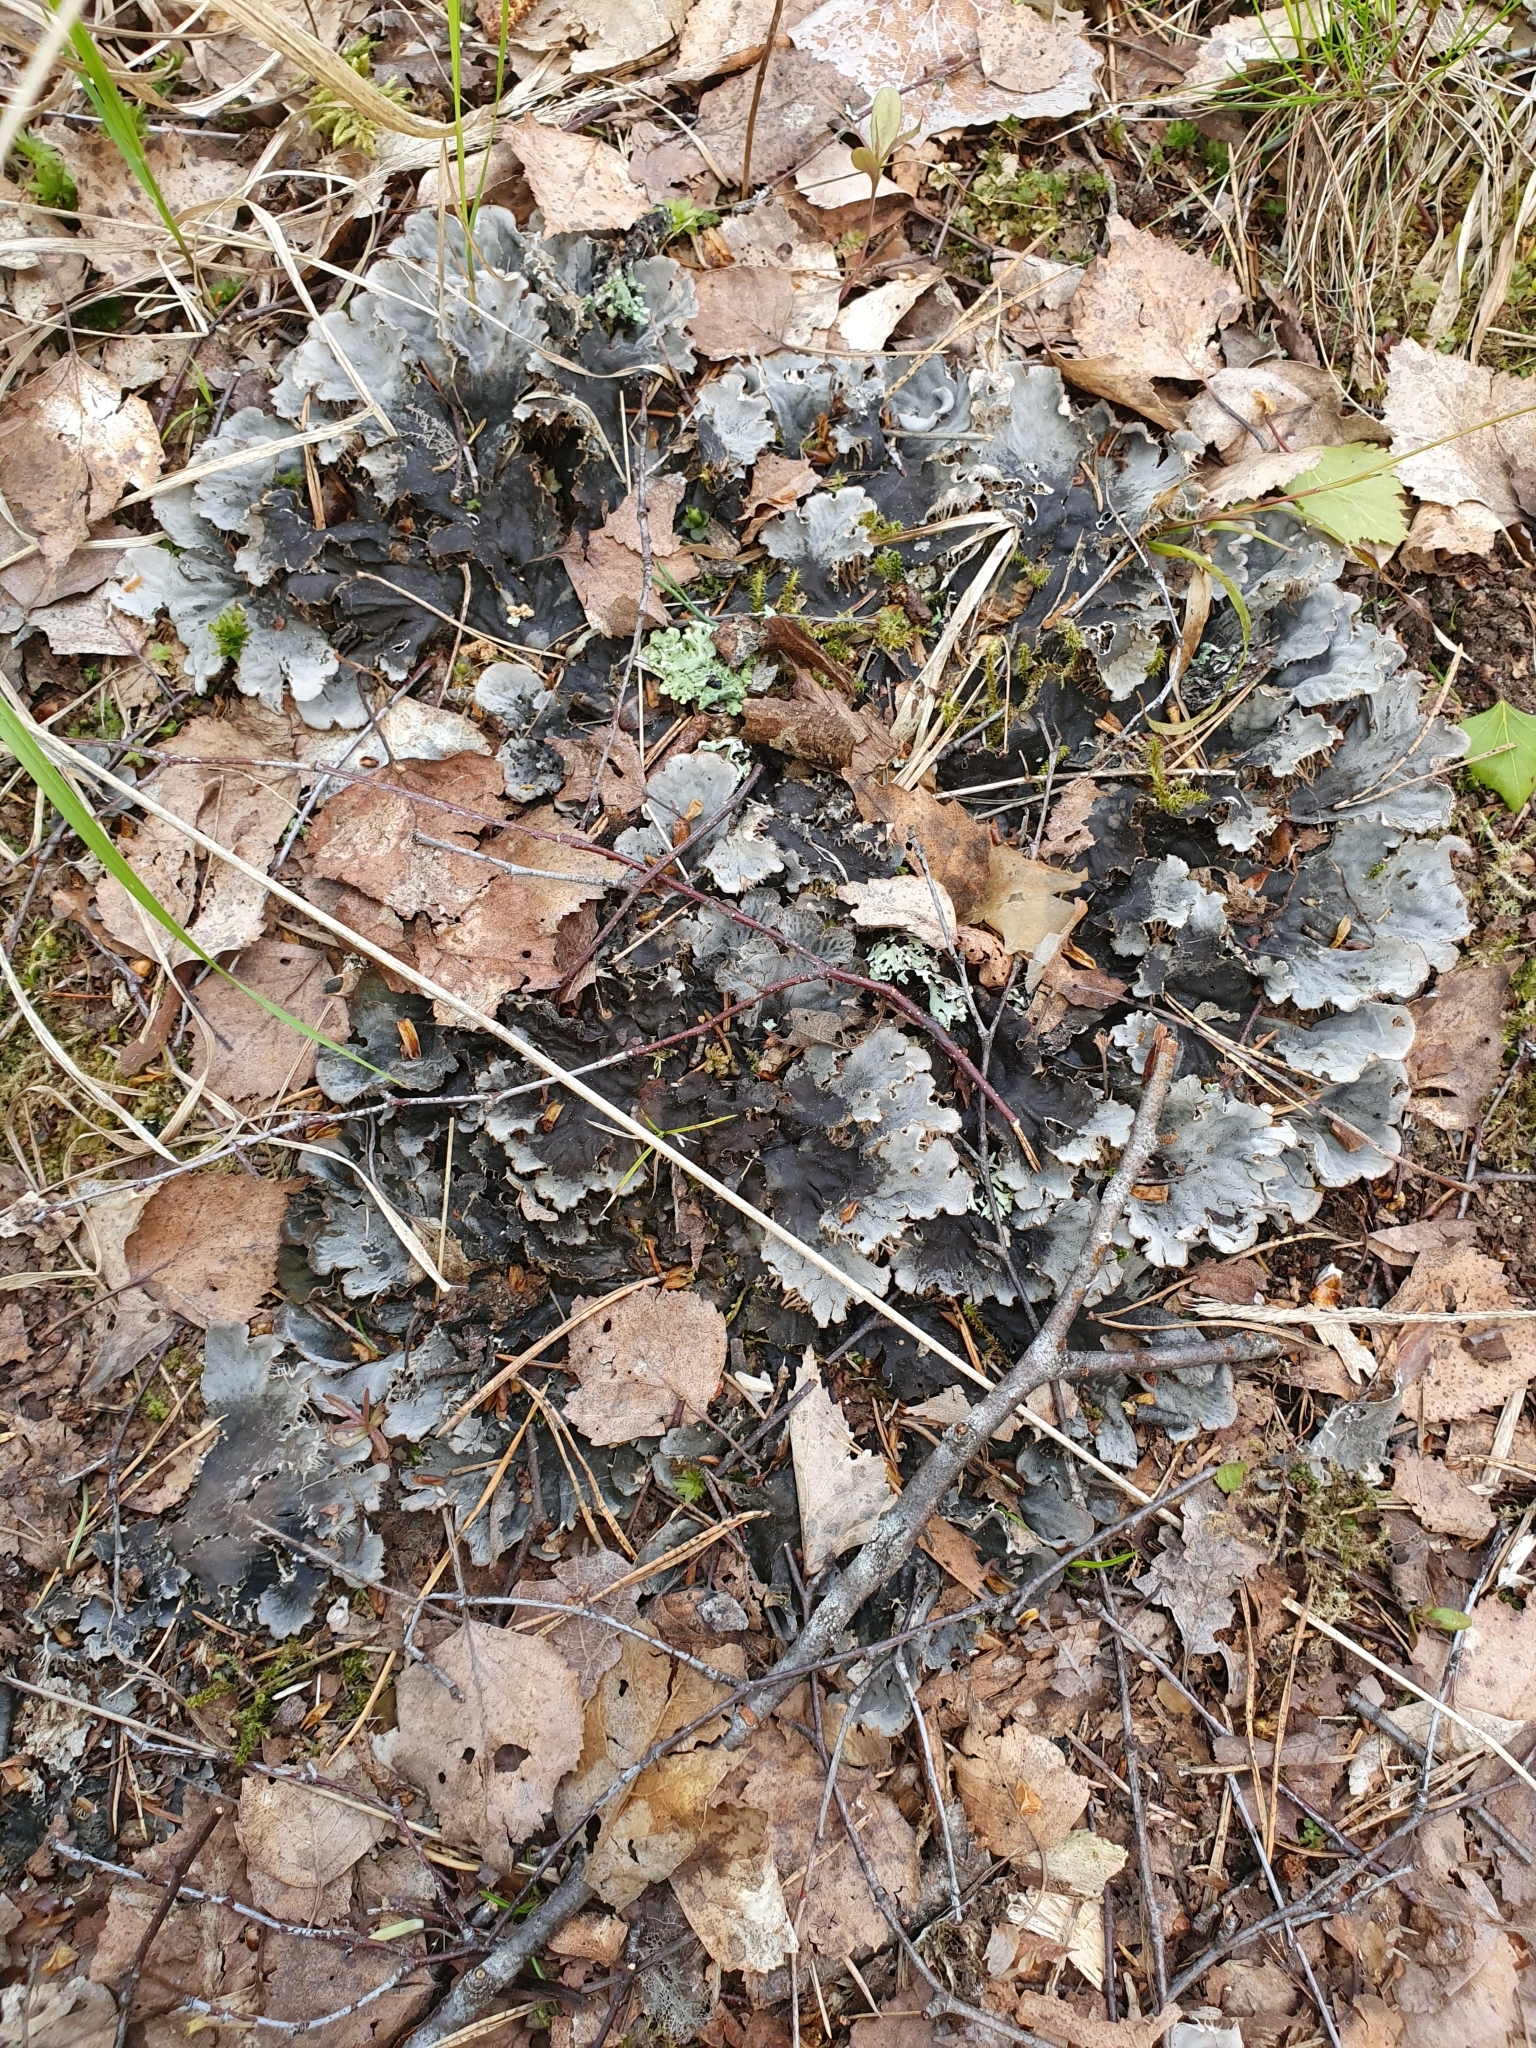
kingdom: Fungi
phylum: Ascomycota
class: Lecanoromycetes
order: Peltigerales
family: Peltigeraceae
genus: Peltigera
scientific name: Peltigera
